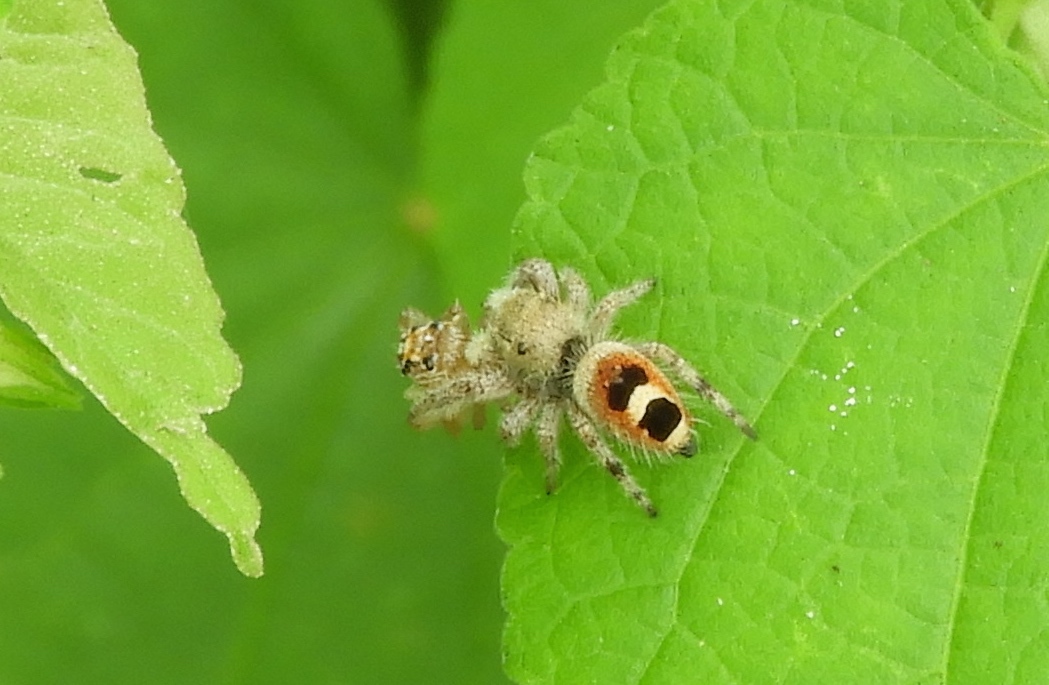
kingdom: Animalia
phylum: Arthropoda
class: Arachnida
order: Araneae
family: Salticidae
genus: Phidippus
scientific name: Phidippus pacosauritus
